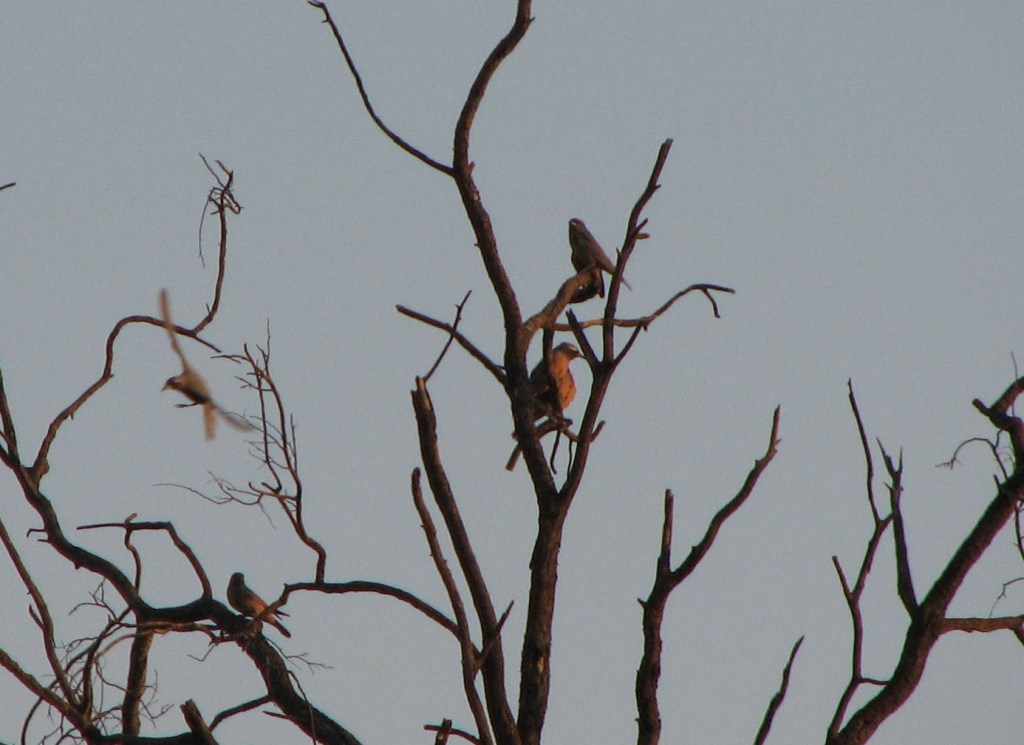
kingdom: Animalia
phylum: Chordata
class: Aves
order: Passeriformes
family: Artamidae
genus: Artamus
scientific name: Artamus superciliosus
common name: White-browed woodswallow
